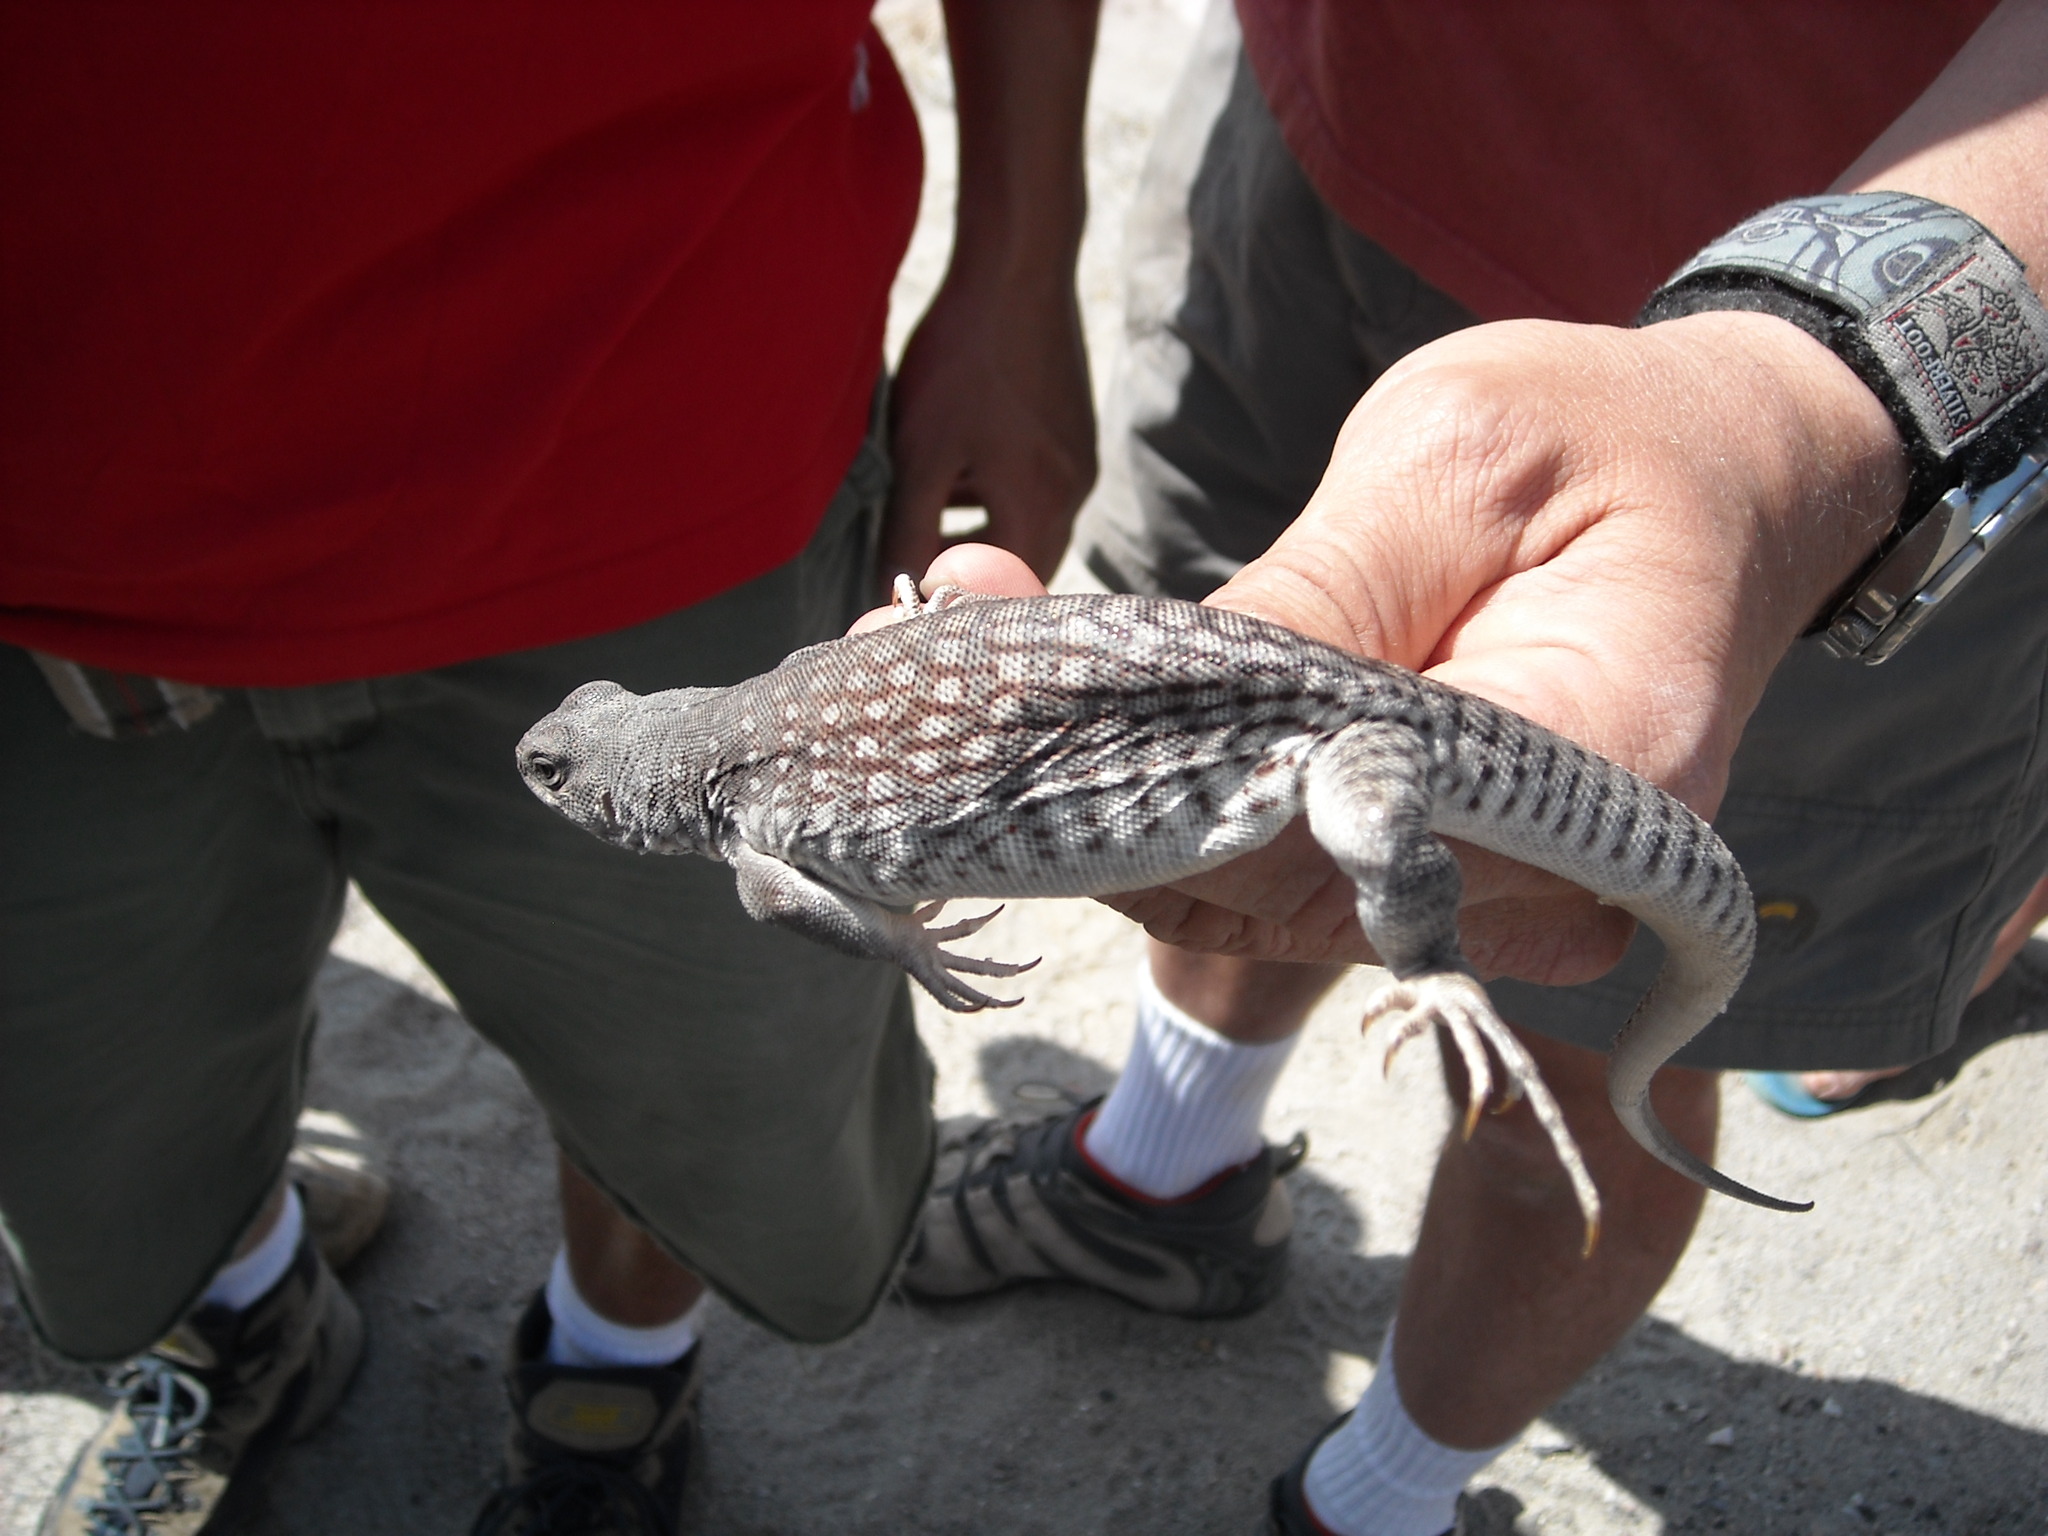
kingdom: Animalia
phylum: Chordata
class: Squamata
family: Iguanidae
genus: Dipsosaurus
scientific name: Dipsosaurus dorsalis
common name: Desert iguana
